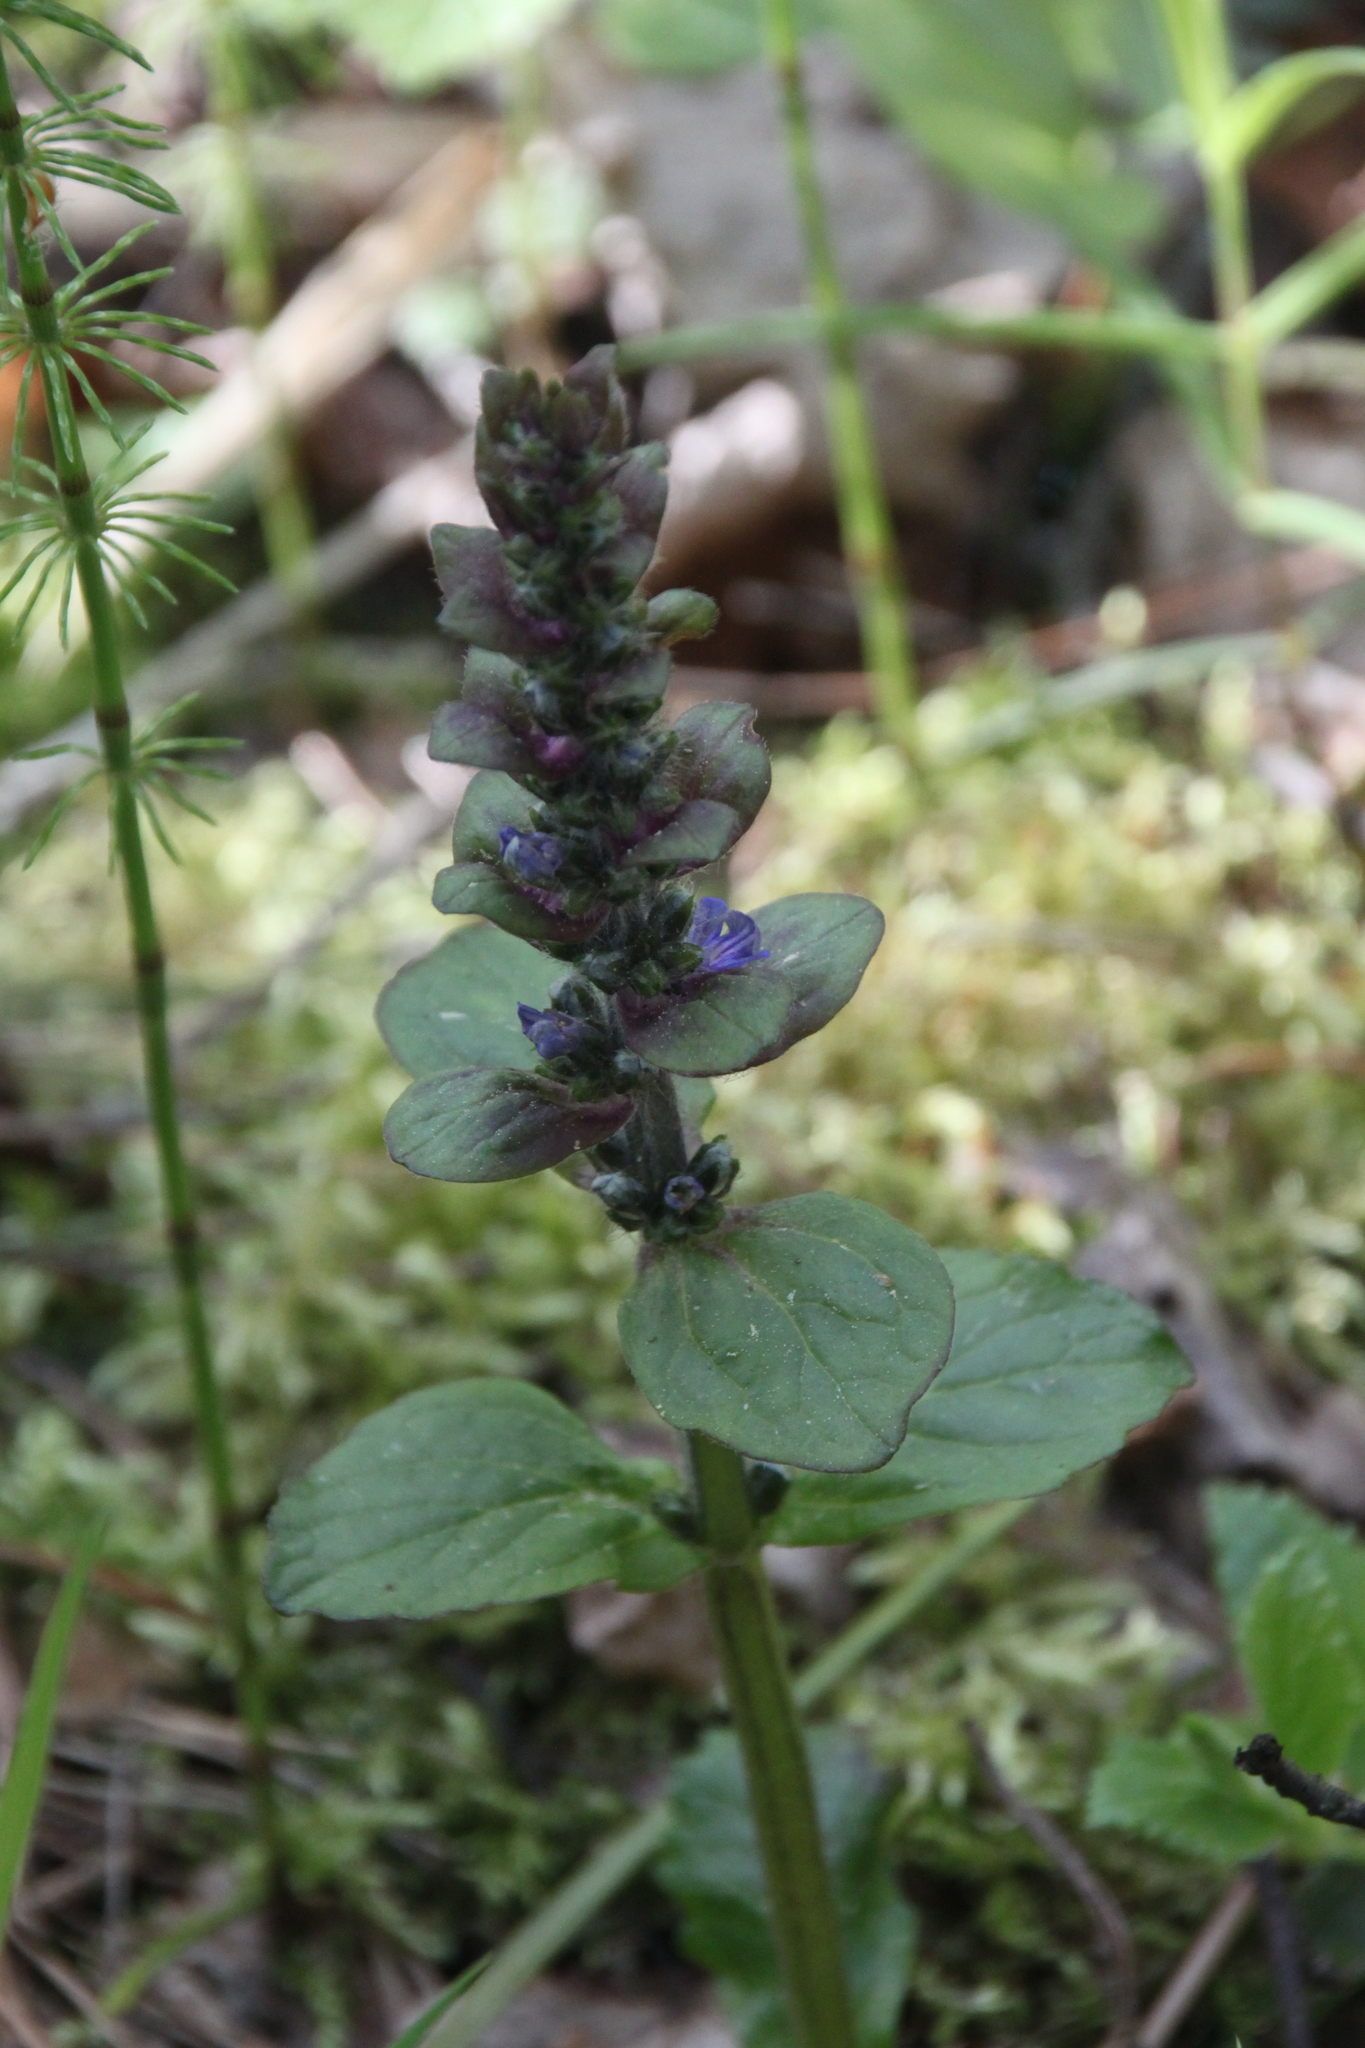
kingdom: Plantae
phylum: Tracheophyta
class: Magnoliopsida
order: Lamiales
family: Lamiaceae
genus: Ajuga
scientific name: Ajuga reptans
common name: Bugle
